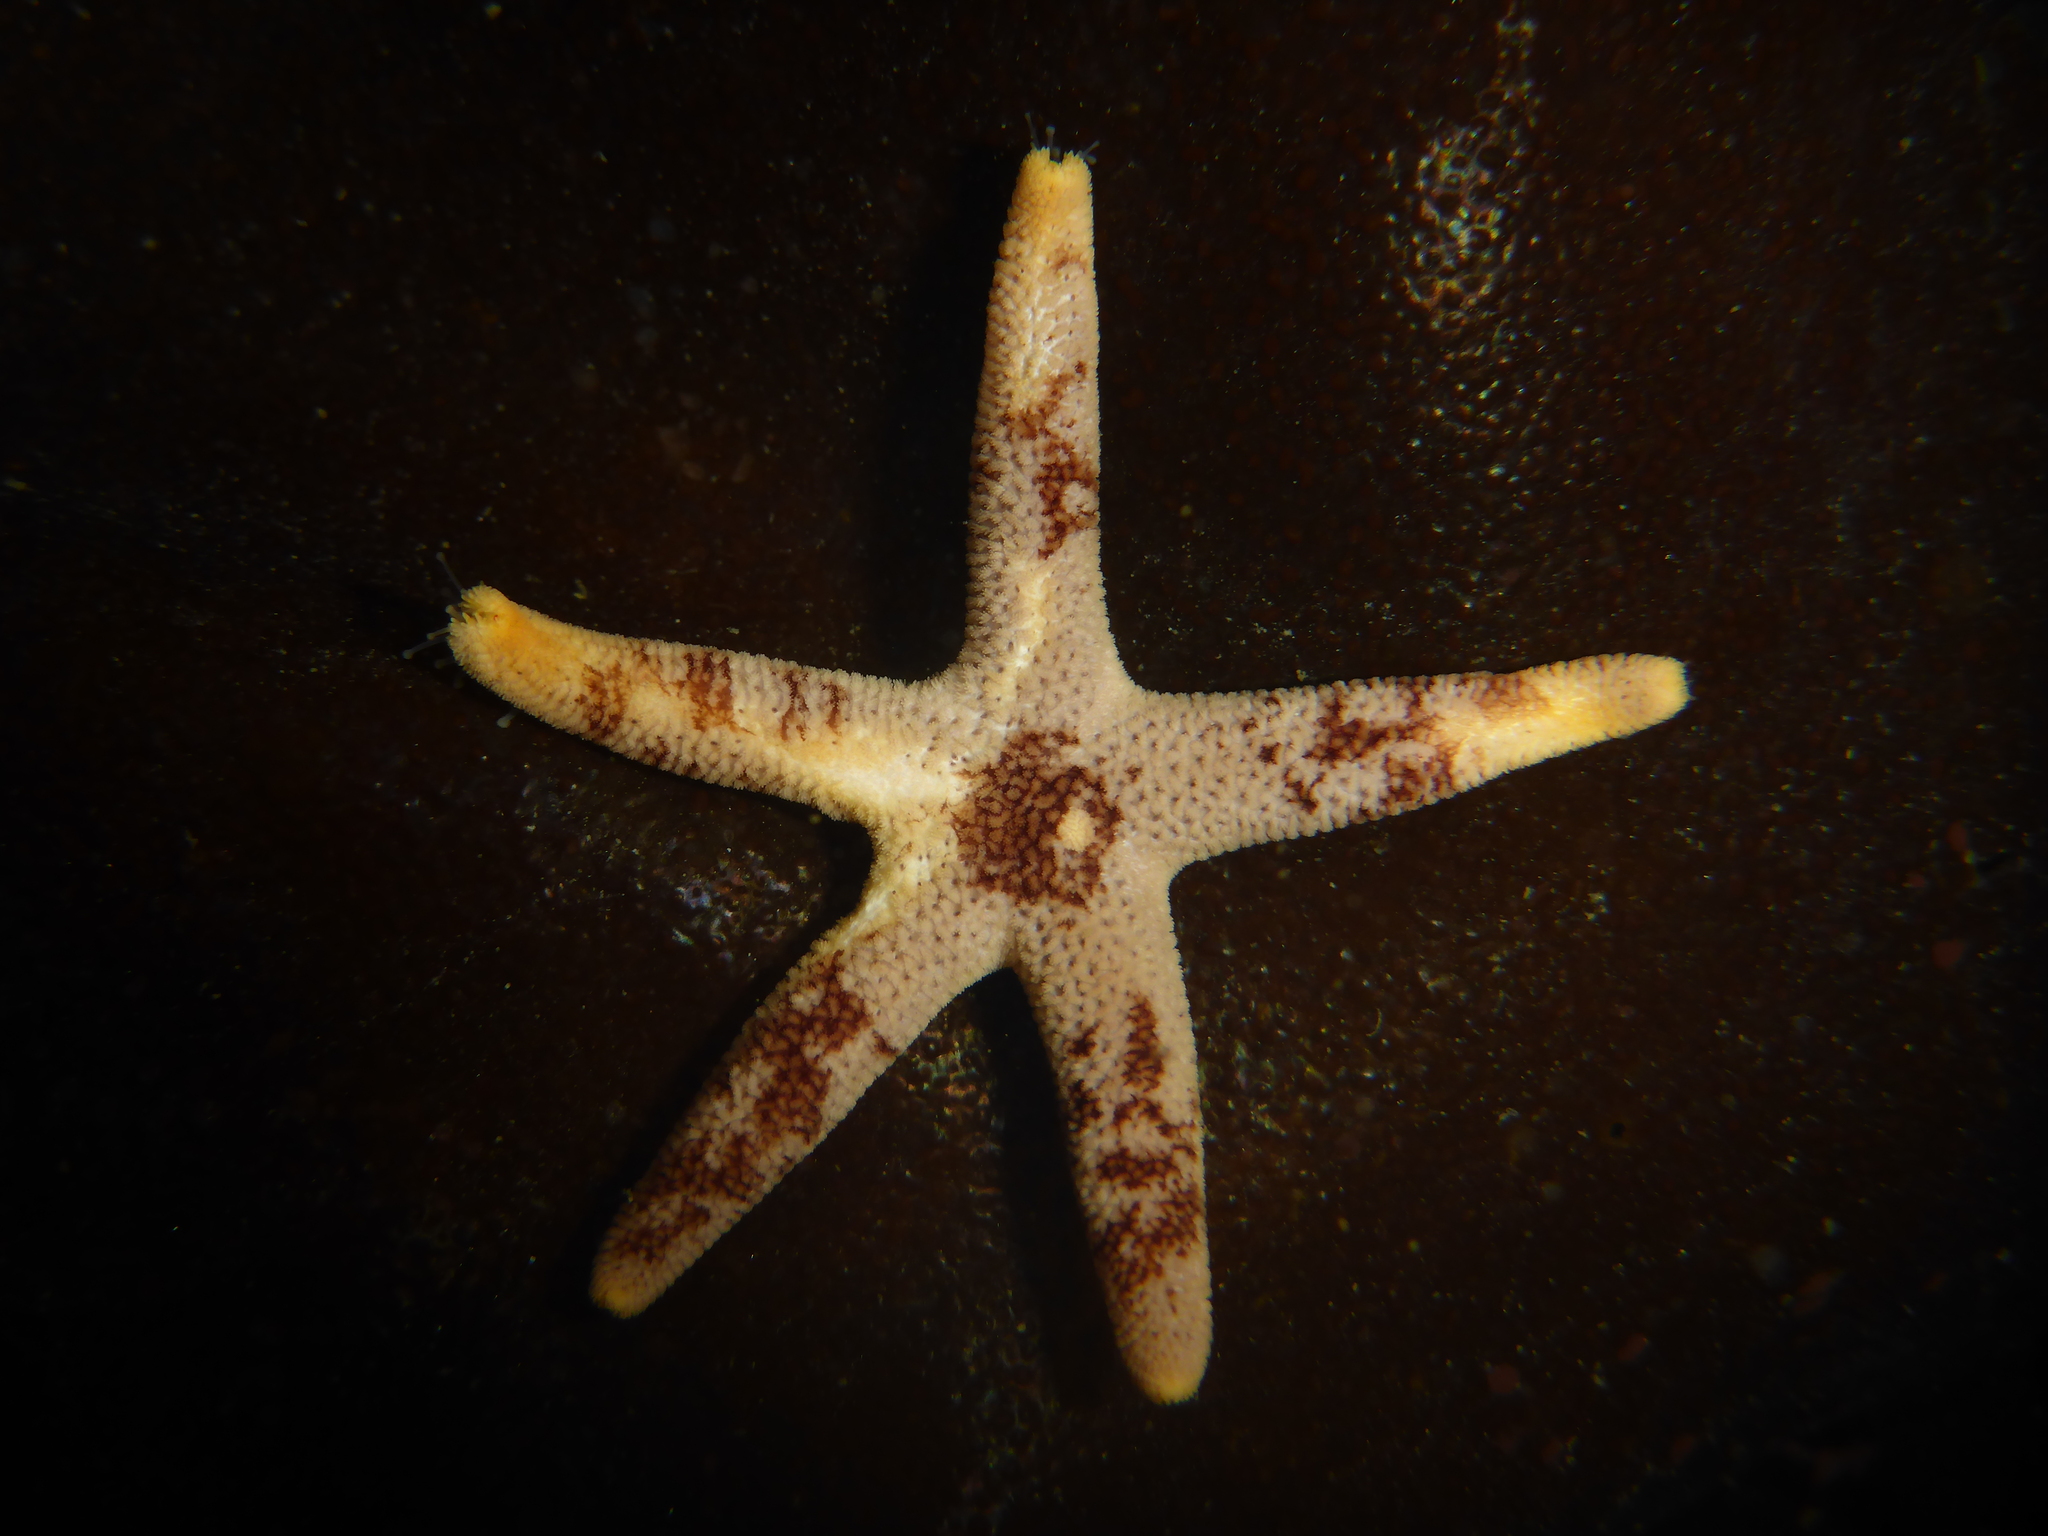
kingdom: Animalia
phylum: Echinodermata
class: Asteroidea
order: Spinulosida
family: Echinasteridae
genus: Henricia
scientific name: Henricia pumila
